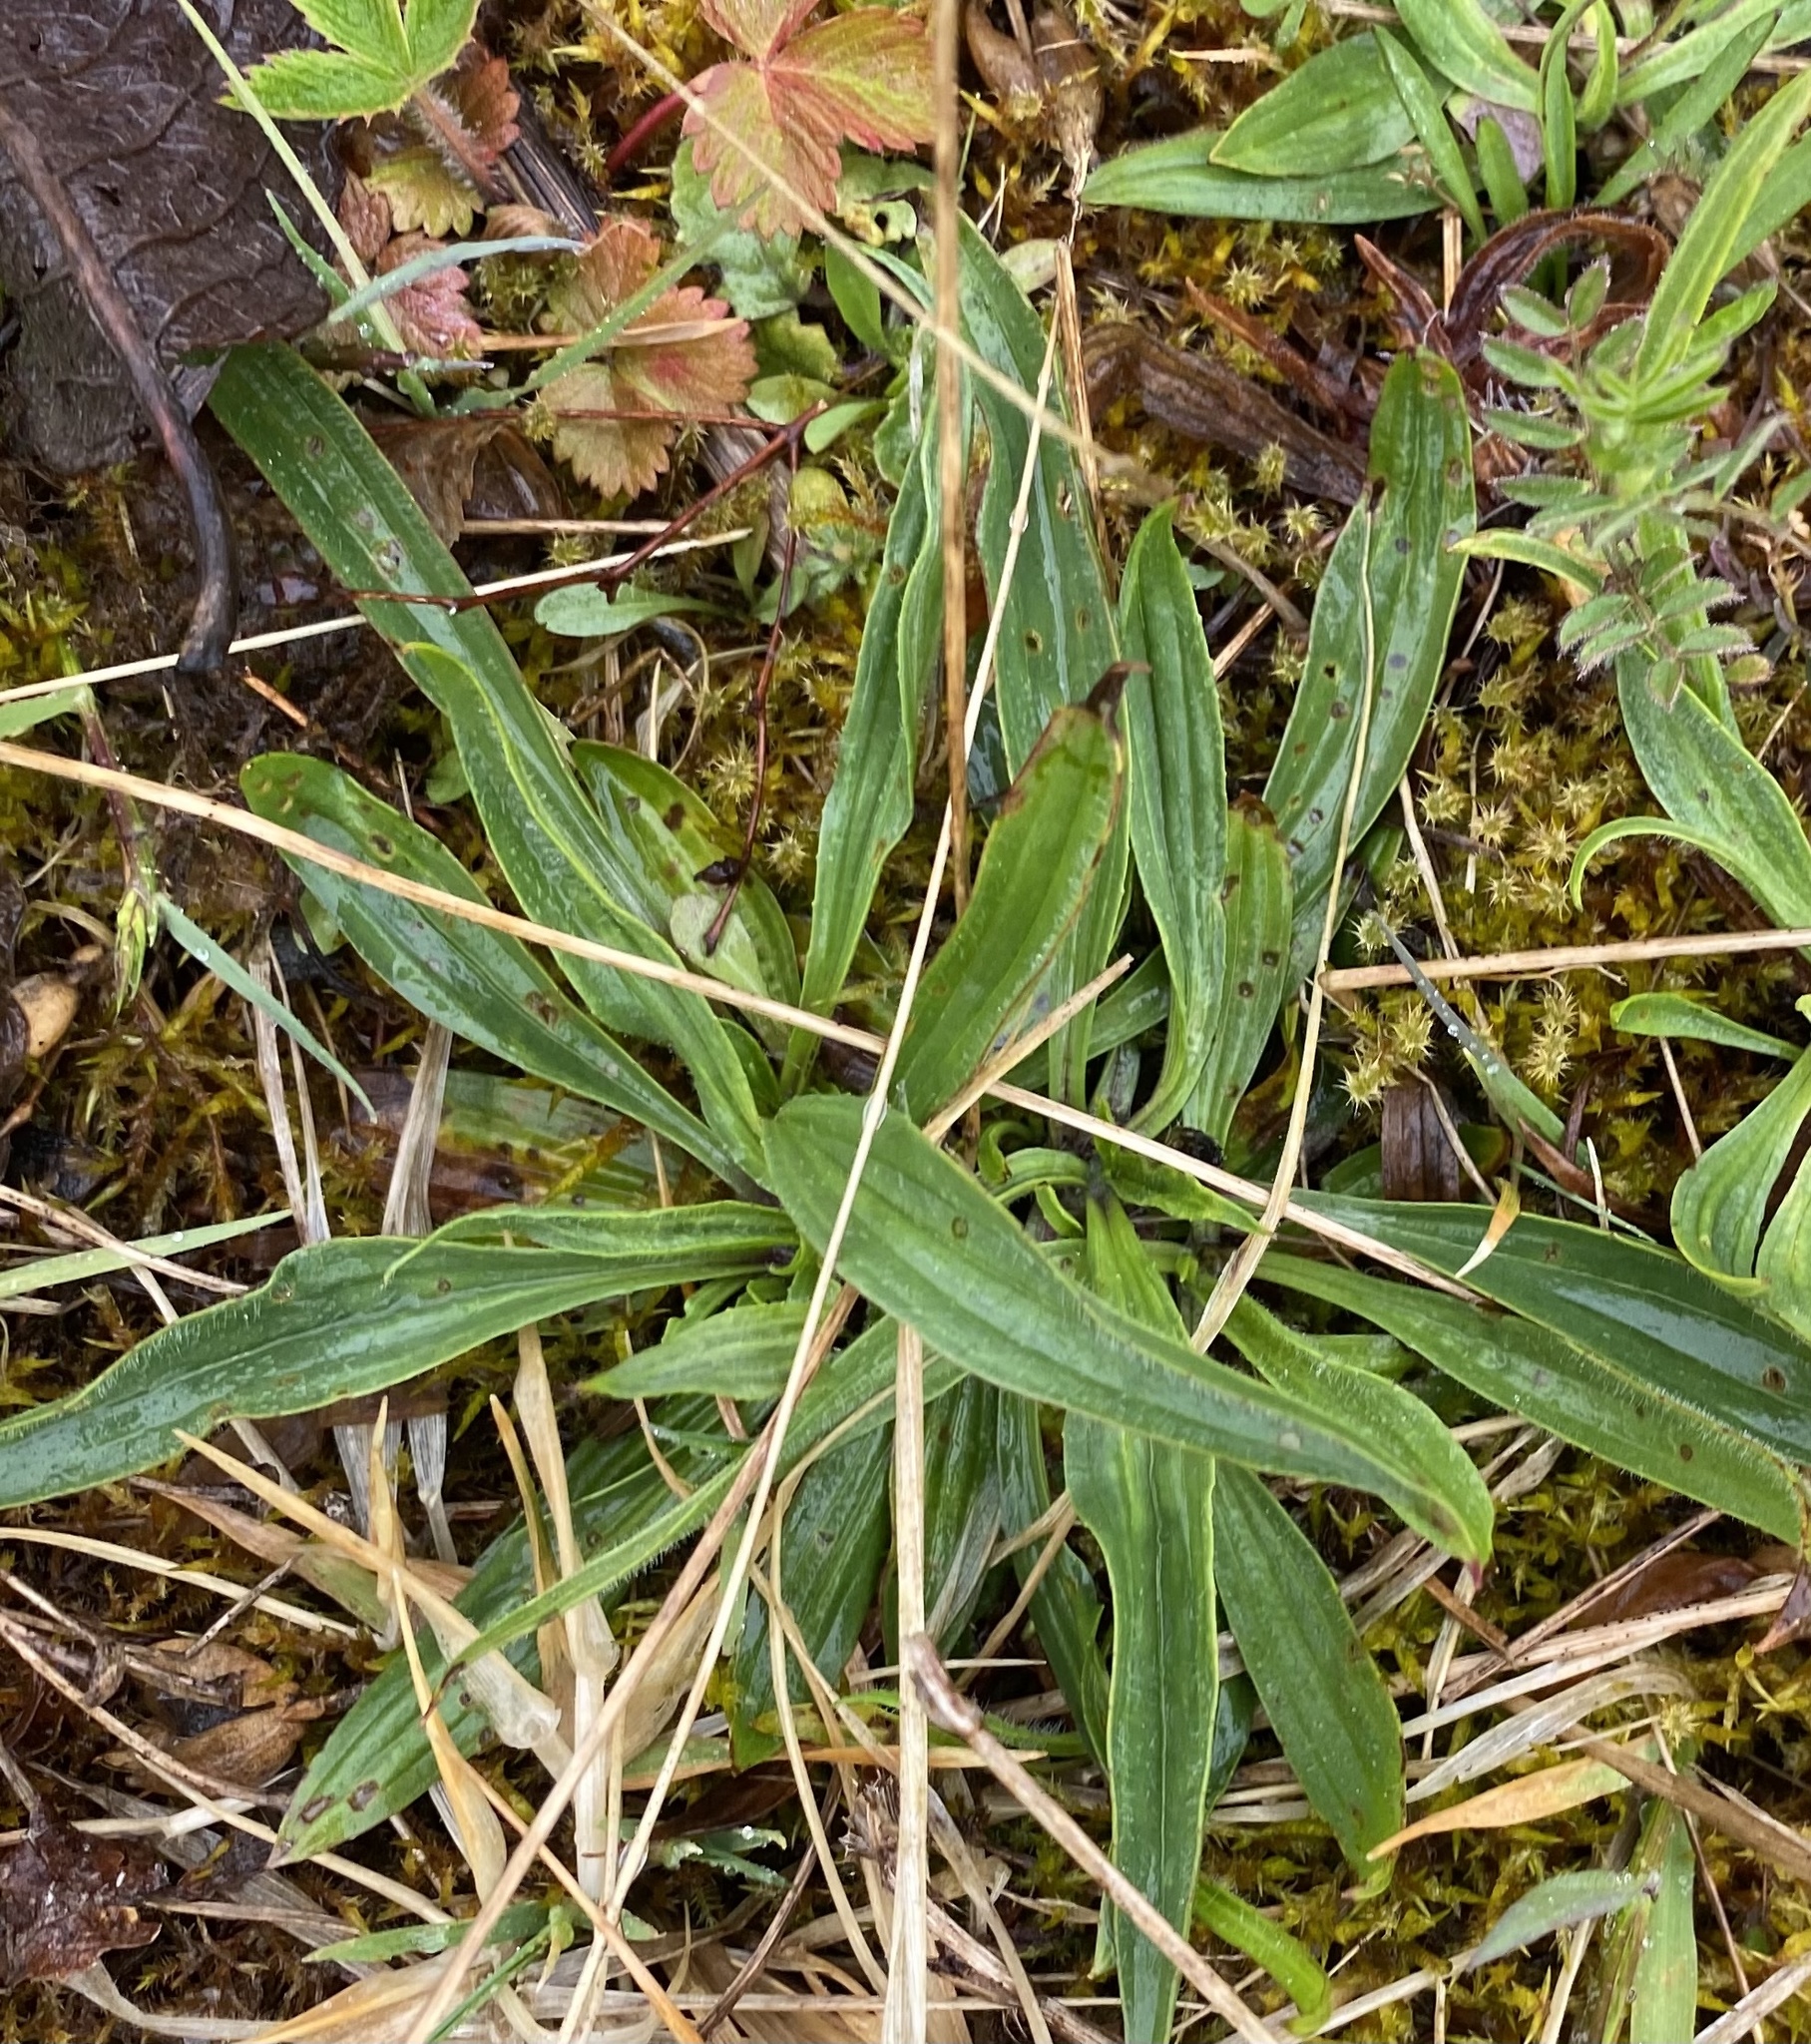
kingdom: Plantae
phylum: Tracheophyta
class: Magnoliopsida
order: Lamiales
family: Plantaginaceae
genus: Plantago
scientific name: Plantago lanceolata
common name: Ribwort plantain
